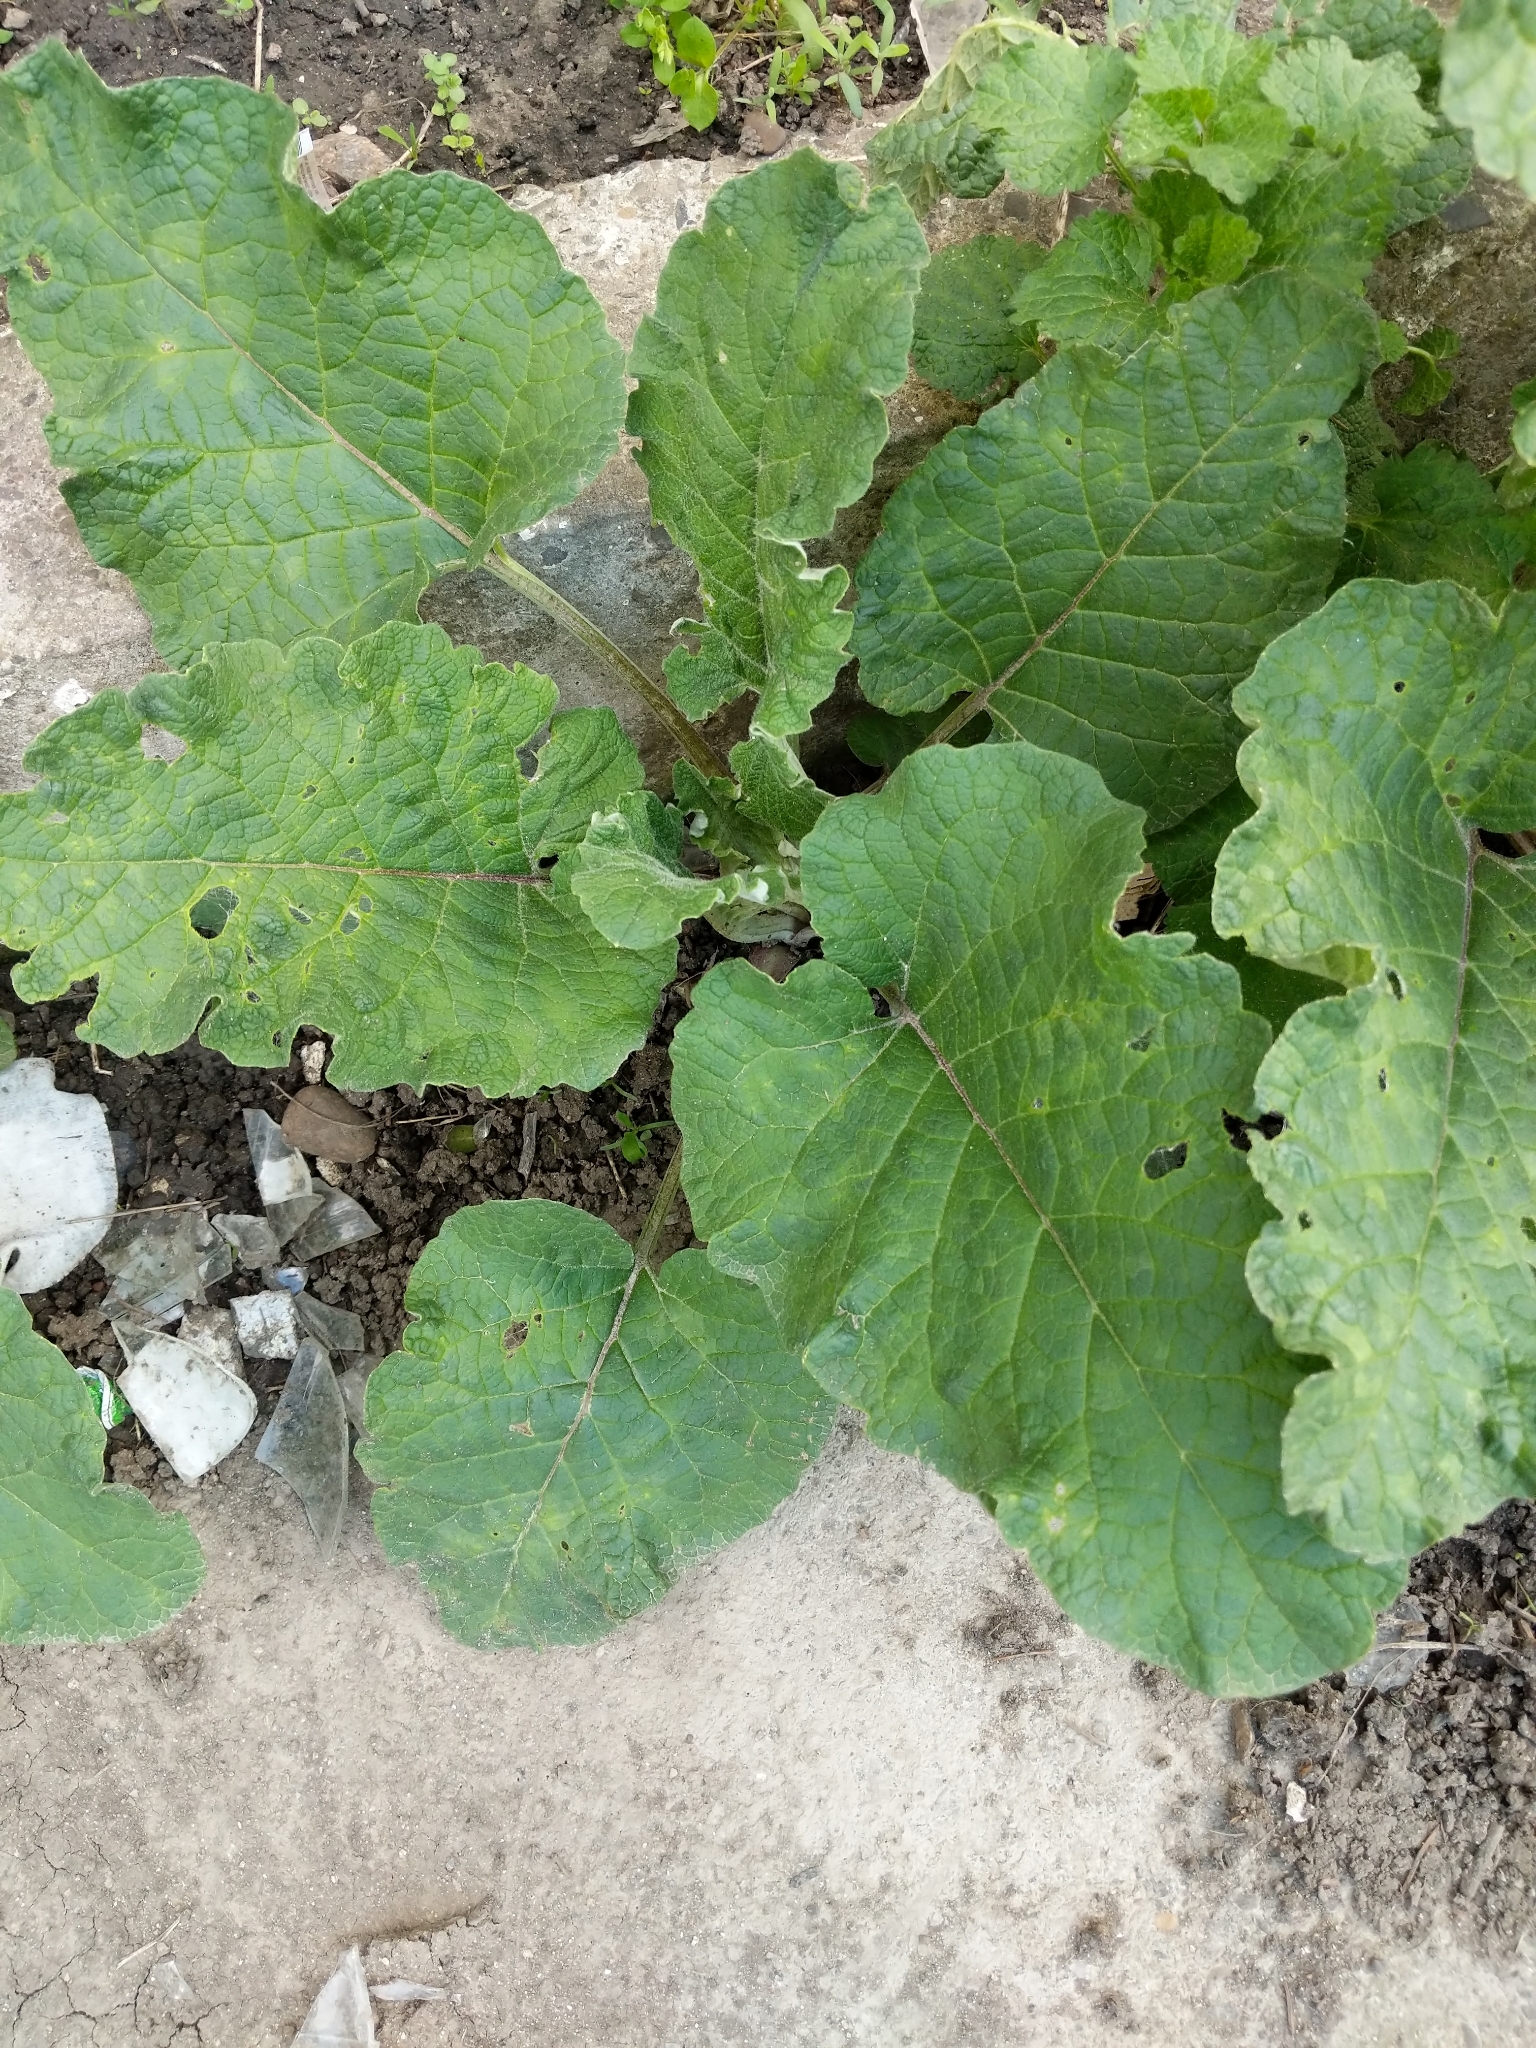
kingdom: Plantae
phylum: Tracheophyta
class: Magnoliopsida
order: Asterales
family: Asteraceae
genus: Arctium
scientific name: Arctium
